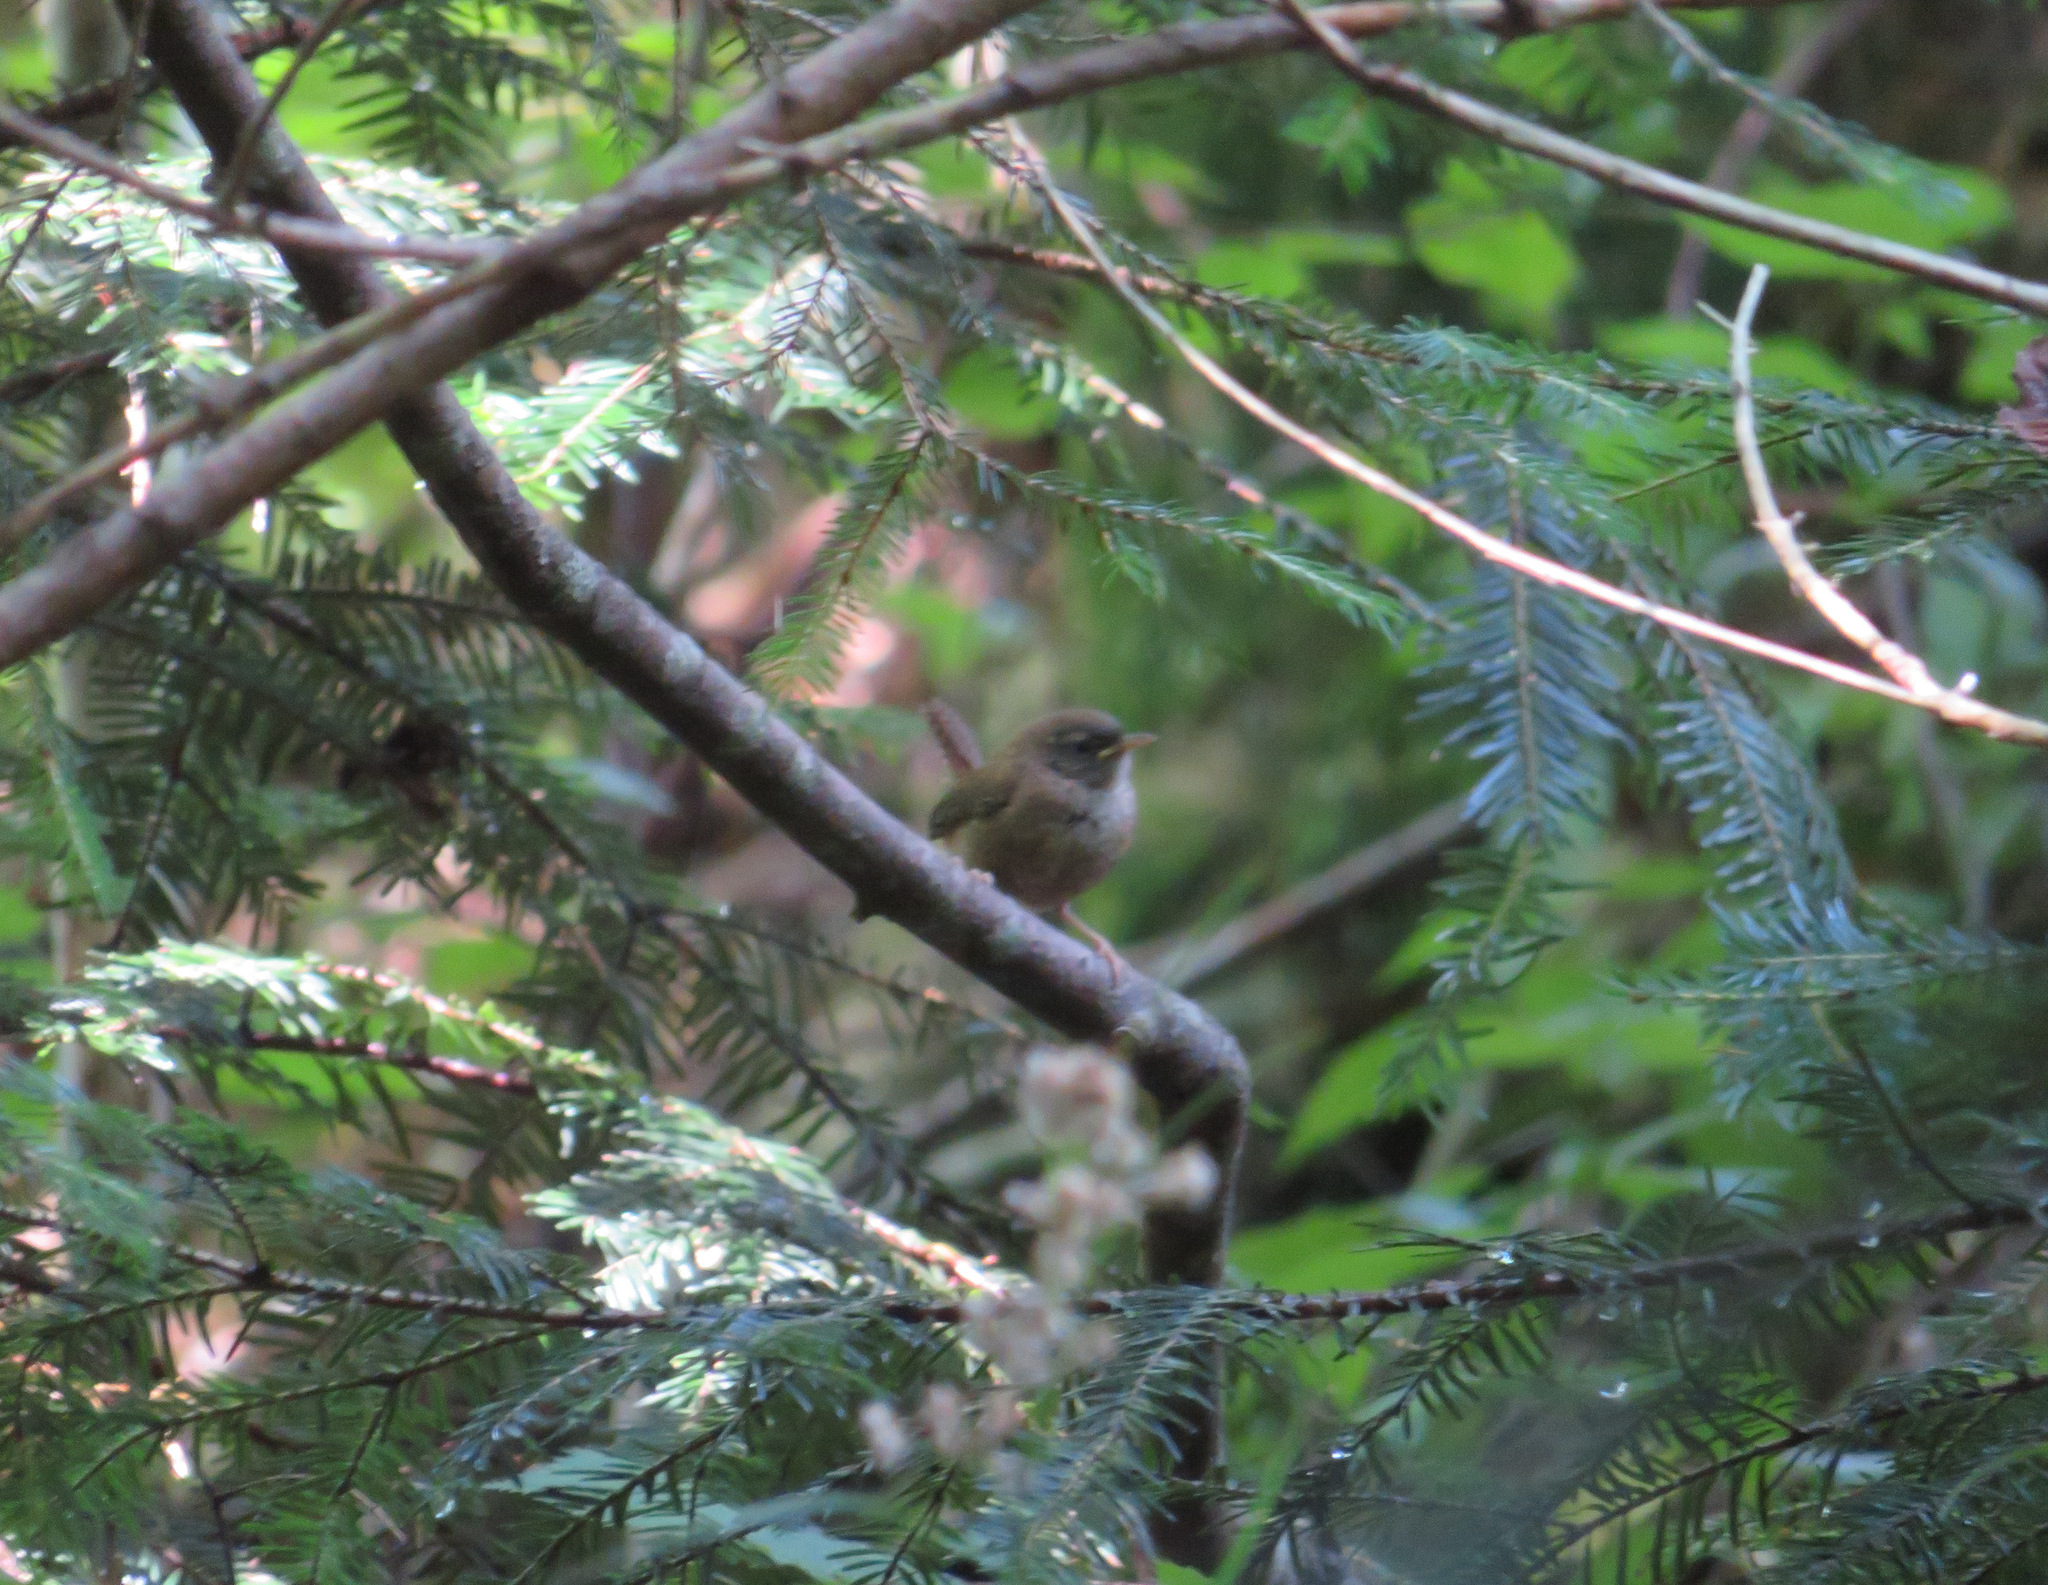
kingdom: Animalia
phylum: Chordata
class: Aves
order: Passeriformes
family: Troglodytidae
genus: Troglodytes
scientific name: Troglodytes troglodytes
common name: Eurasian wren
